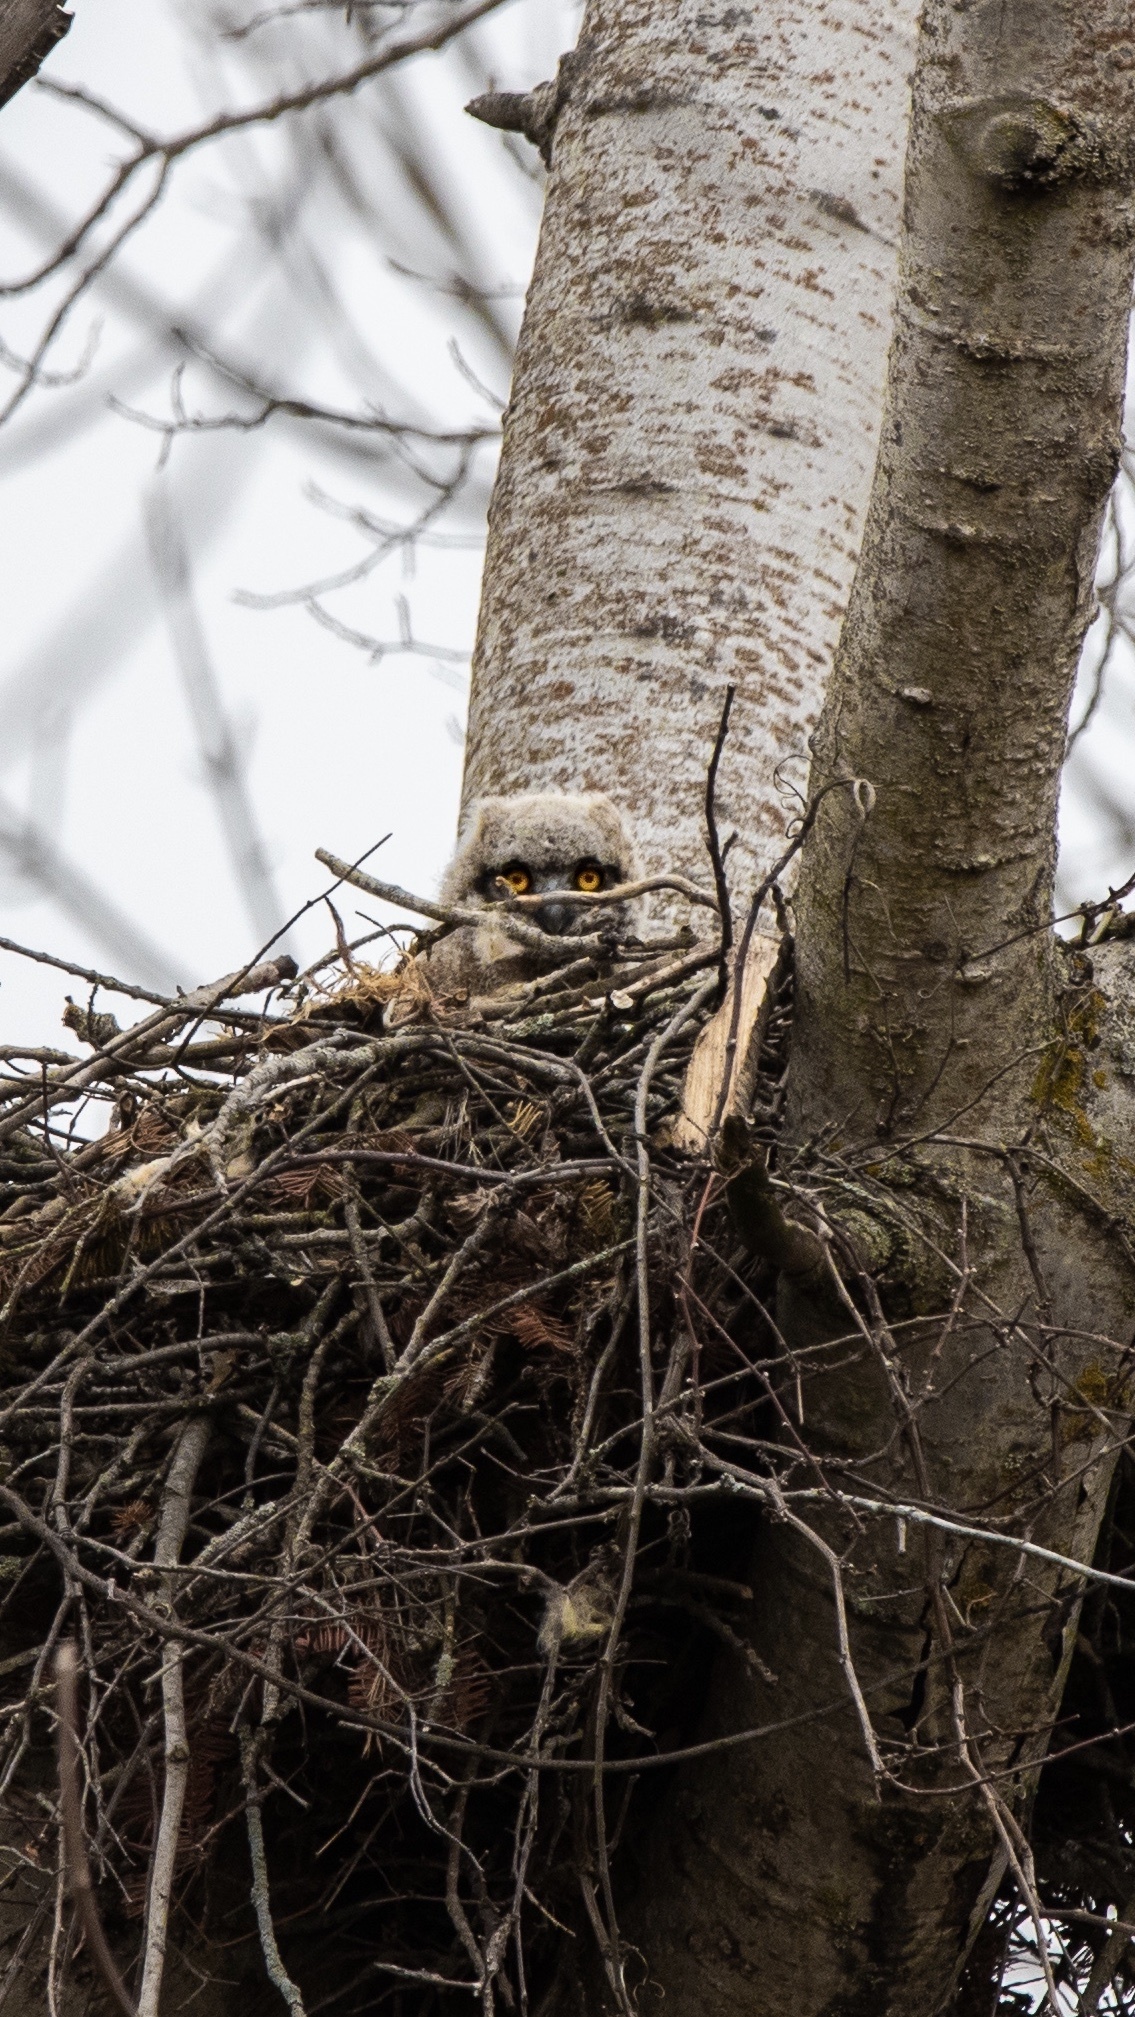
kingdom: Animalia
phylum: Chordata
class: Aves
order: Strigiformes
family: Strigidae
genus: Bubo
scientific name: Bubo virginianus
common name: Great horned owl
